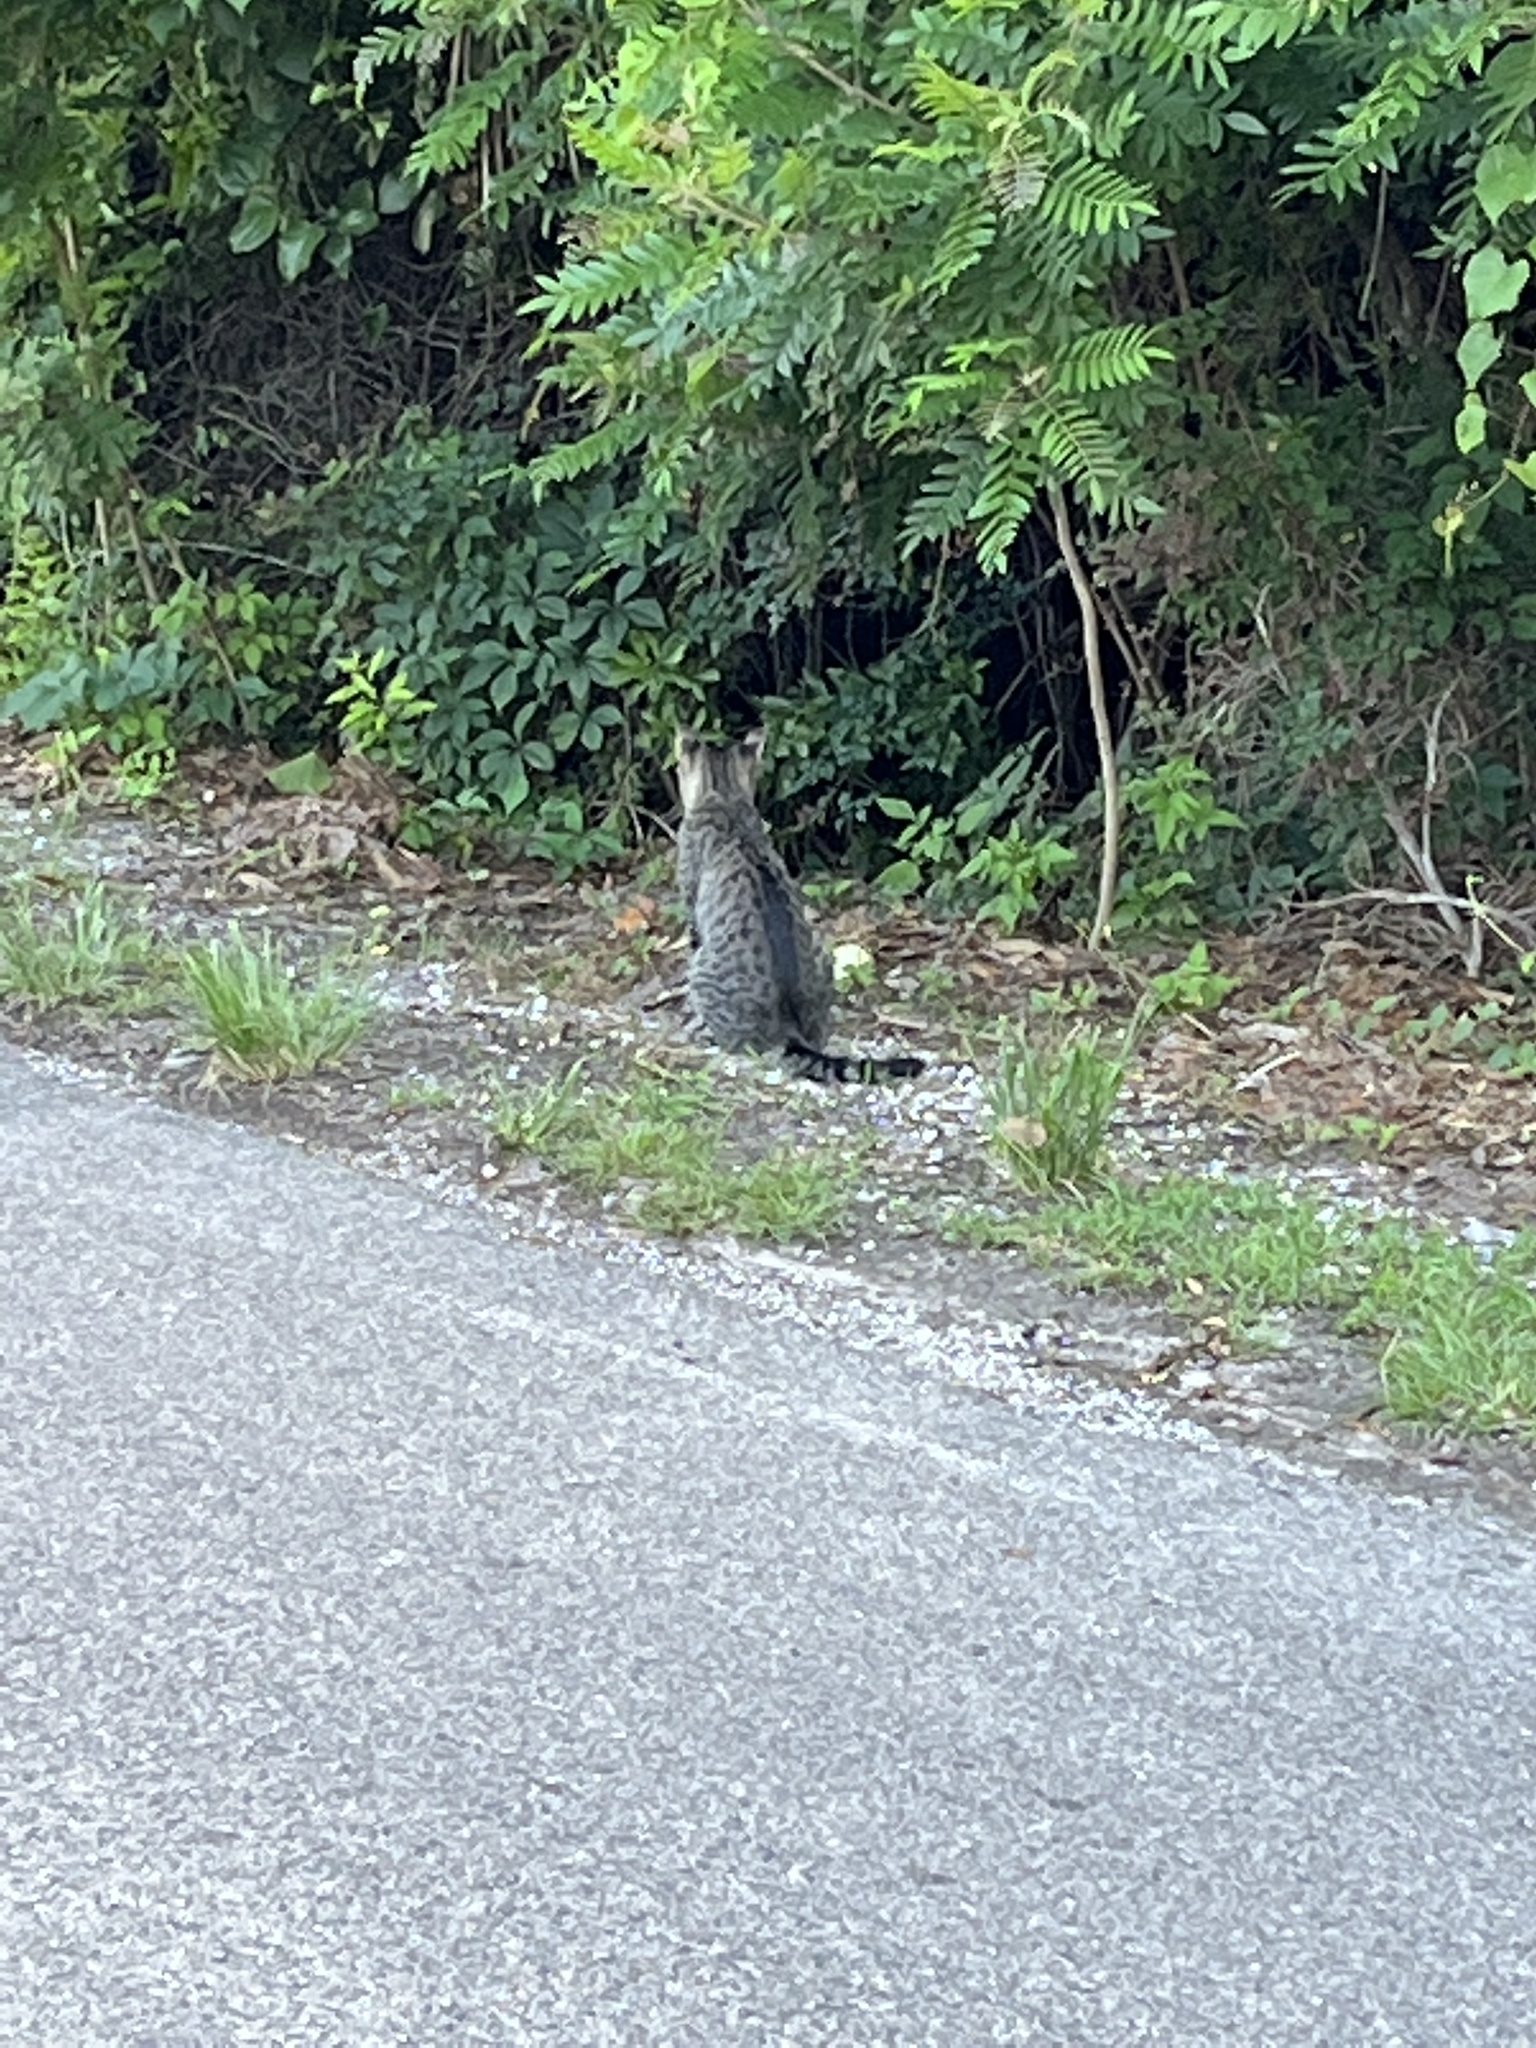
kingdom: Animalia
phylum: Chordata
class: Mammalia
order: Carnivora
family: Felidae
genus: Felis
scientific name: Felis catus
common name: Domestic cat
